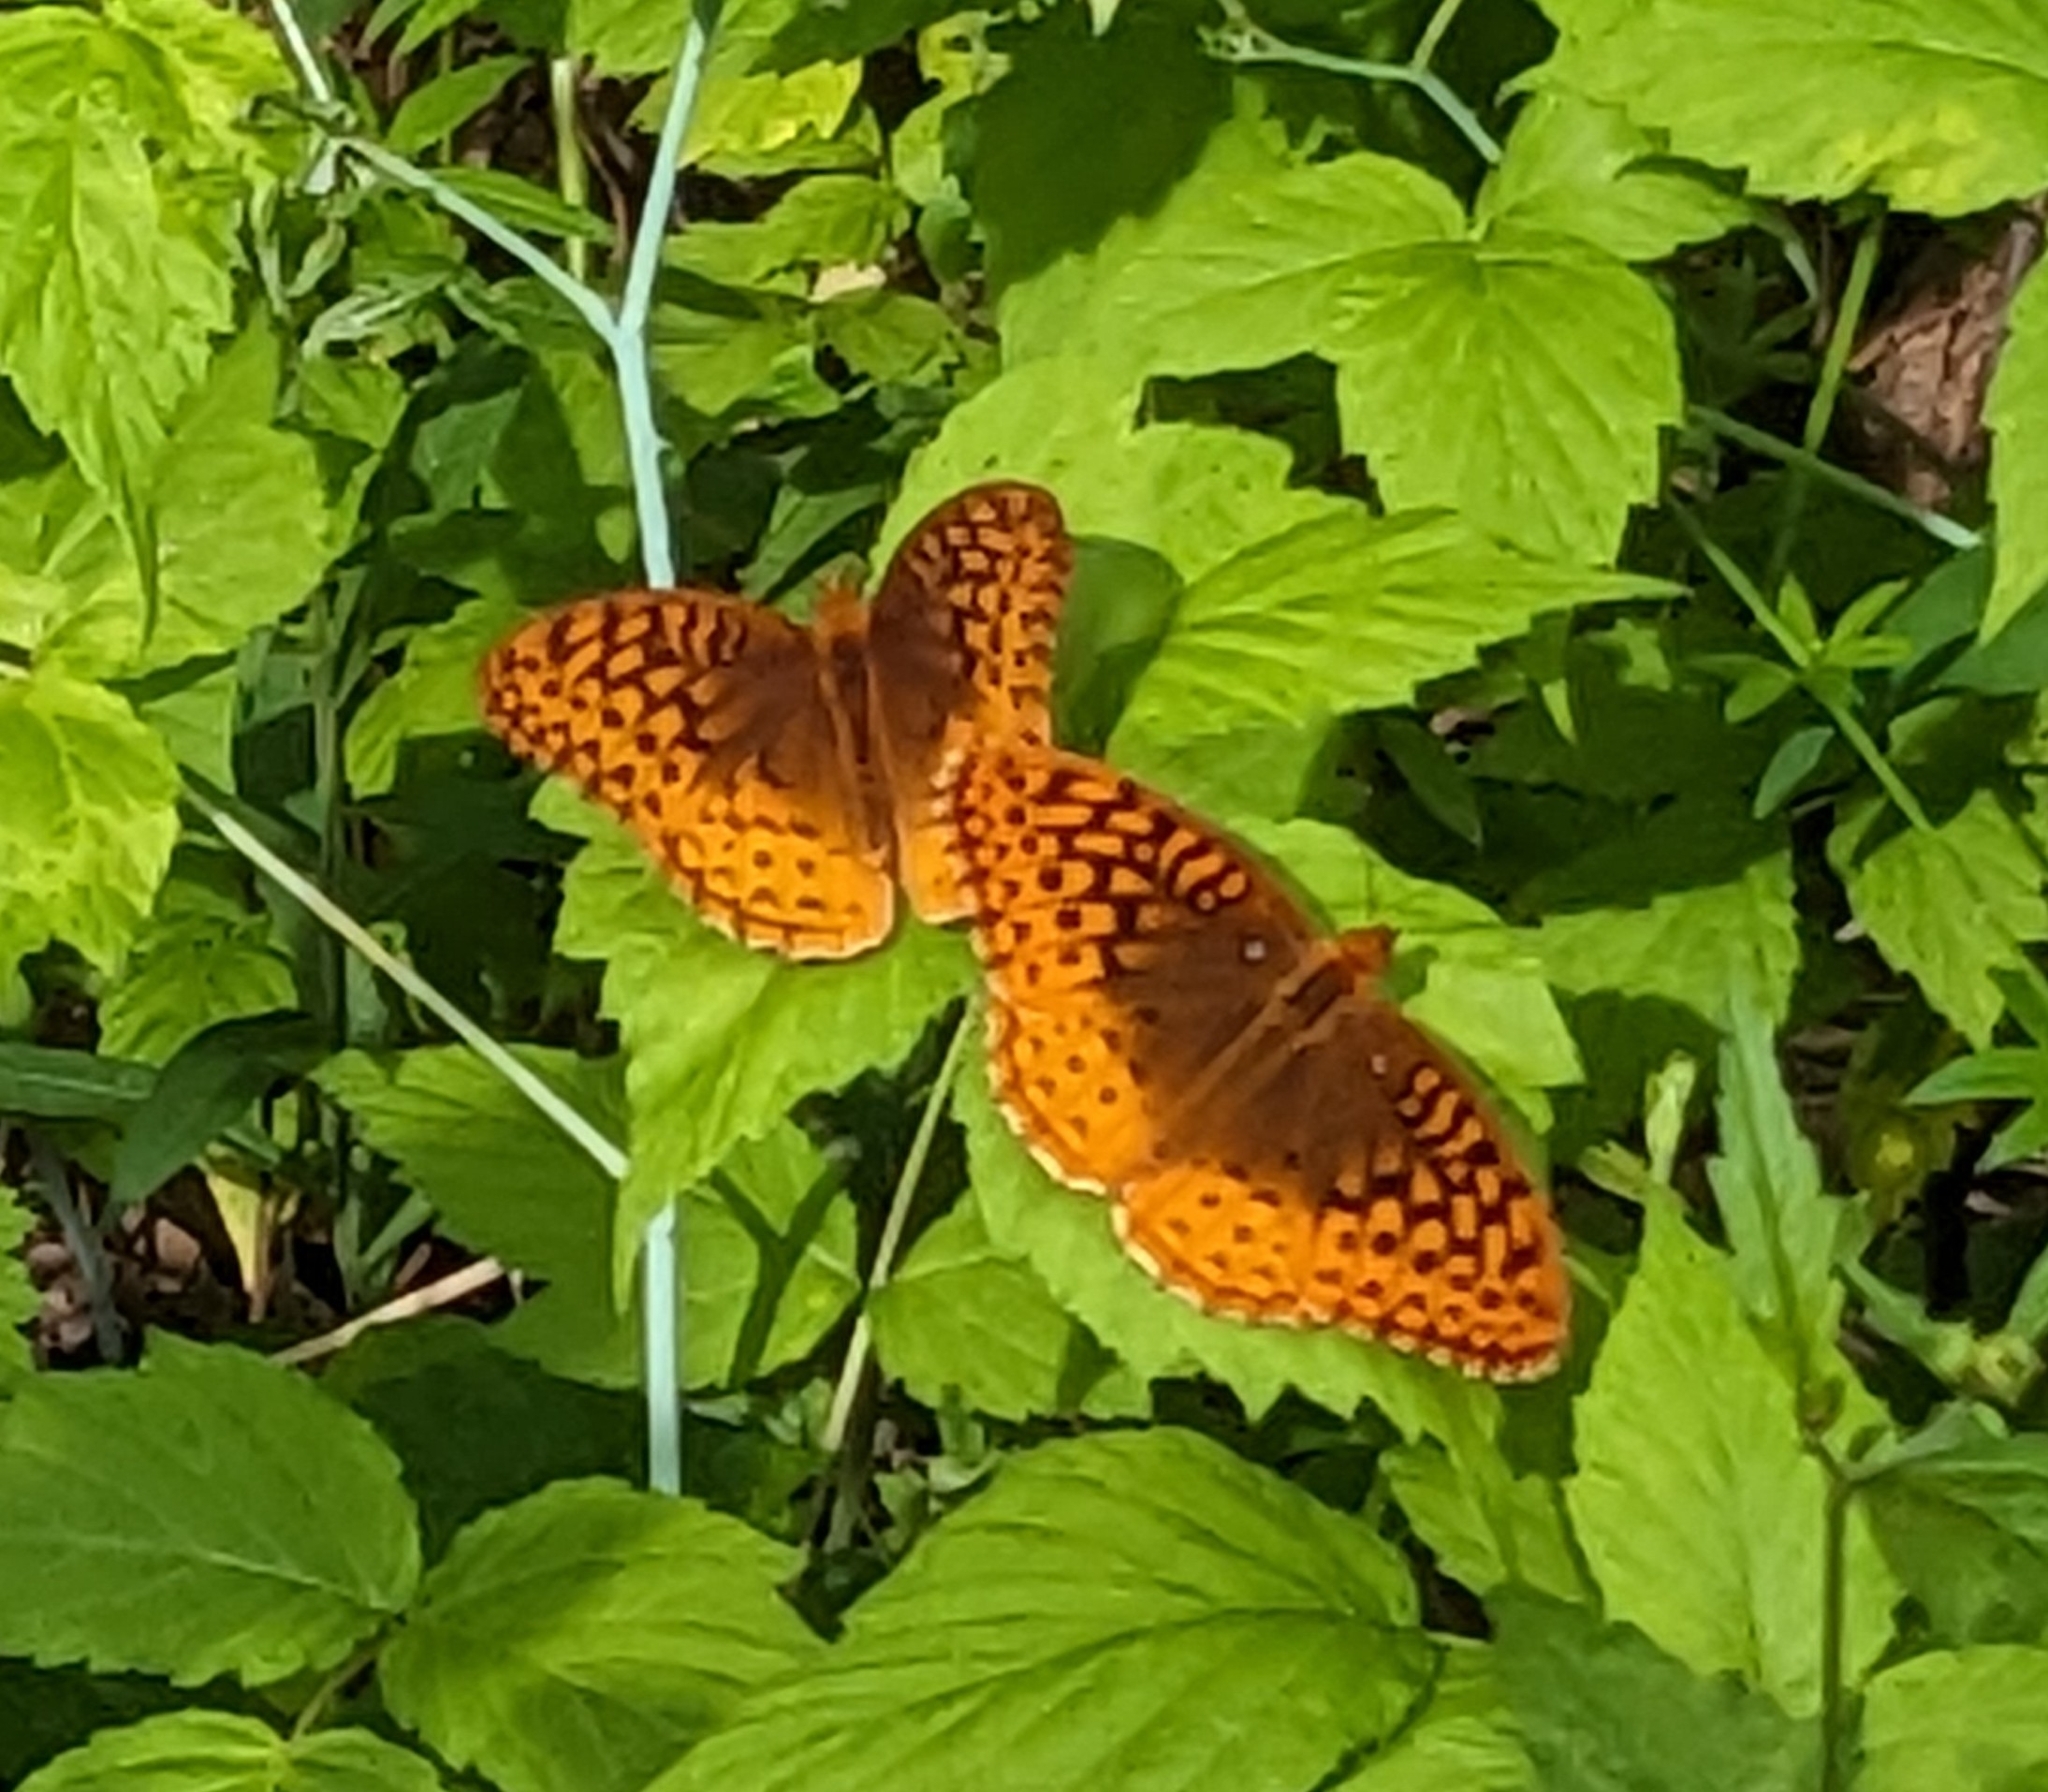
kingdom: Animalia
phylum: Arthropoda
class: Insecta
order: Lepidoptera
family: Nymphalidae
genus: Speyeria
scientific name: Speyeria cybele
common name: Great spangled fritillary
